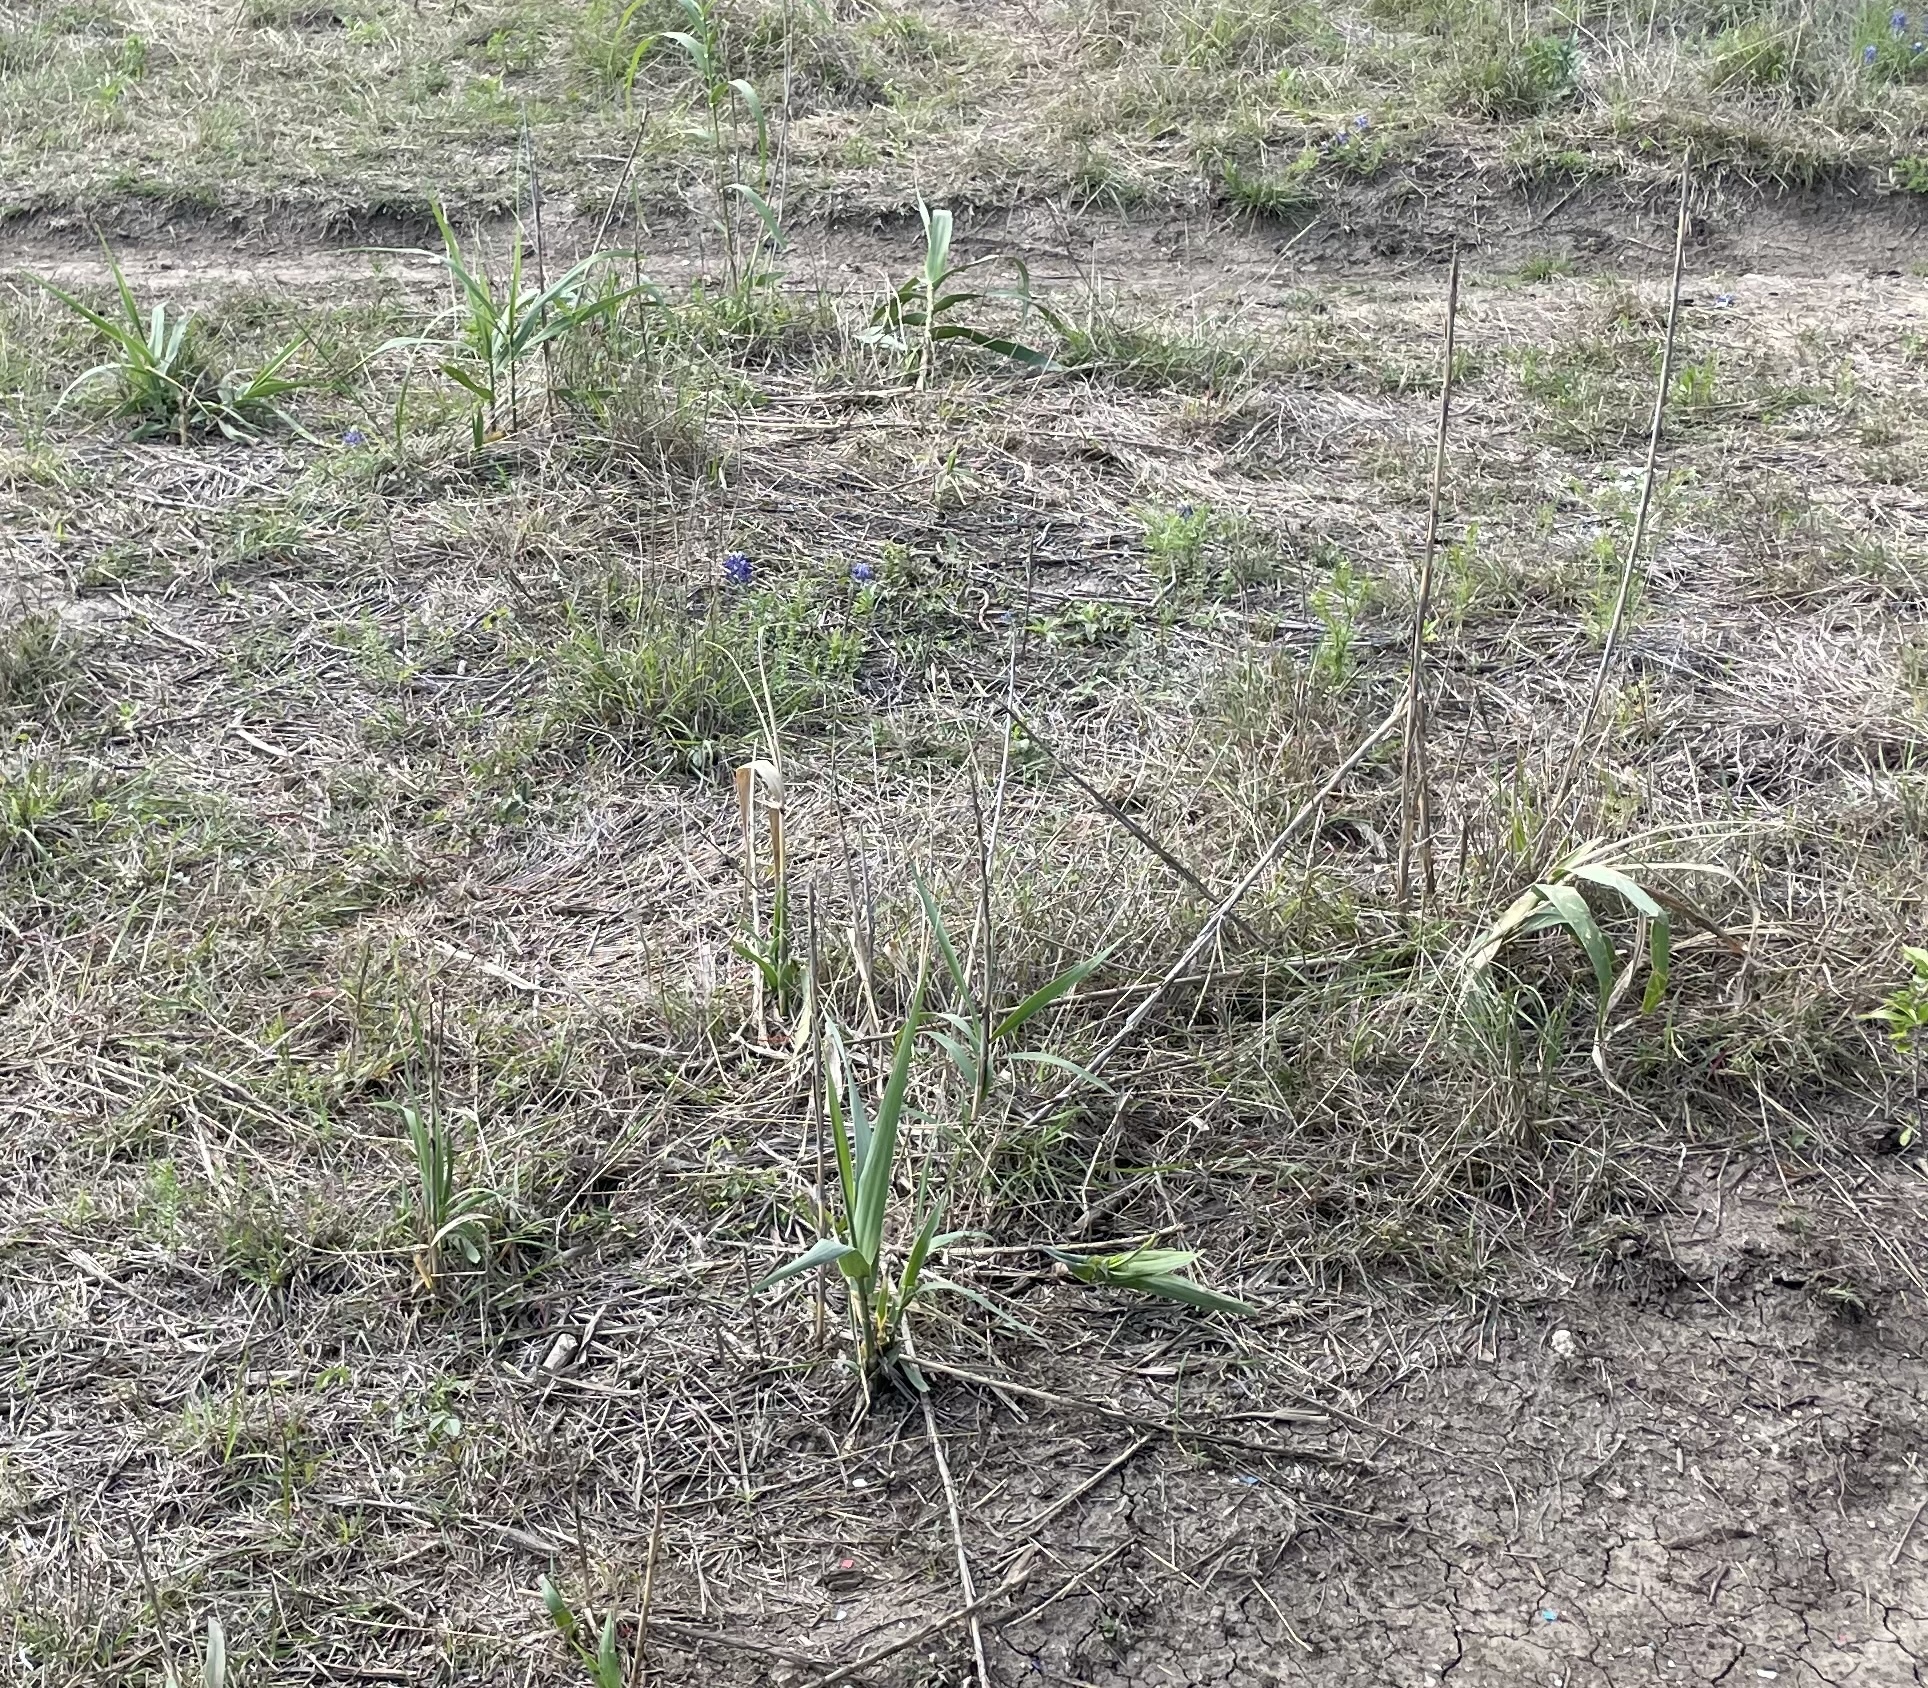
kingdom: Plantae
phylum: Tracheophyta
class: Liliopsida
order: Poales
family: Poaceae
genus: Arundo
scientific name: Arundo donax
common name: Giant reed
